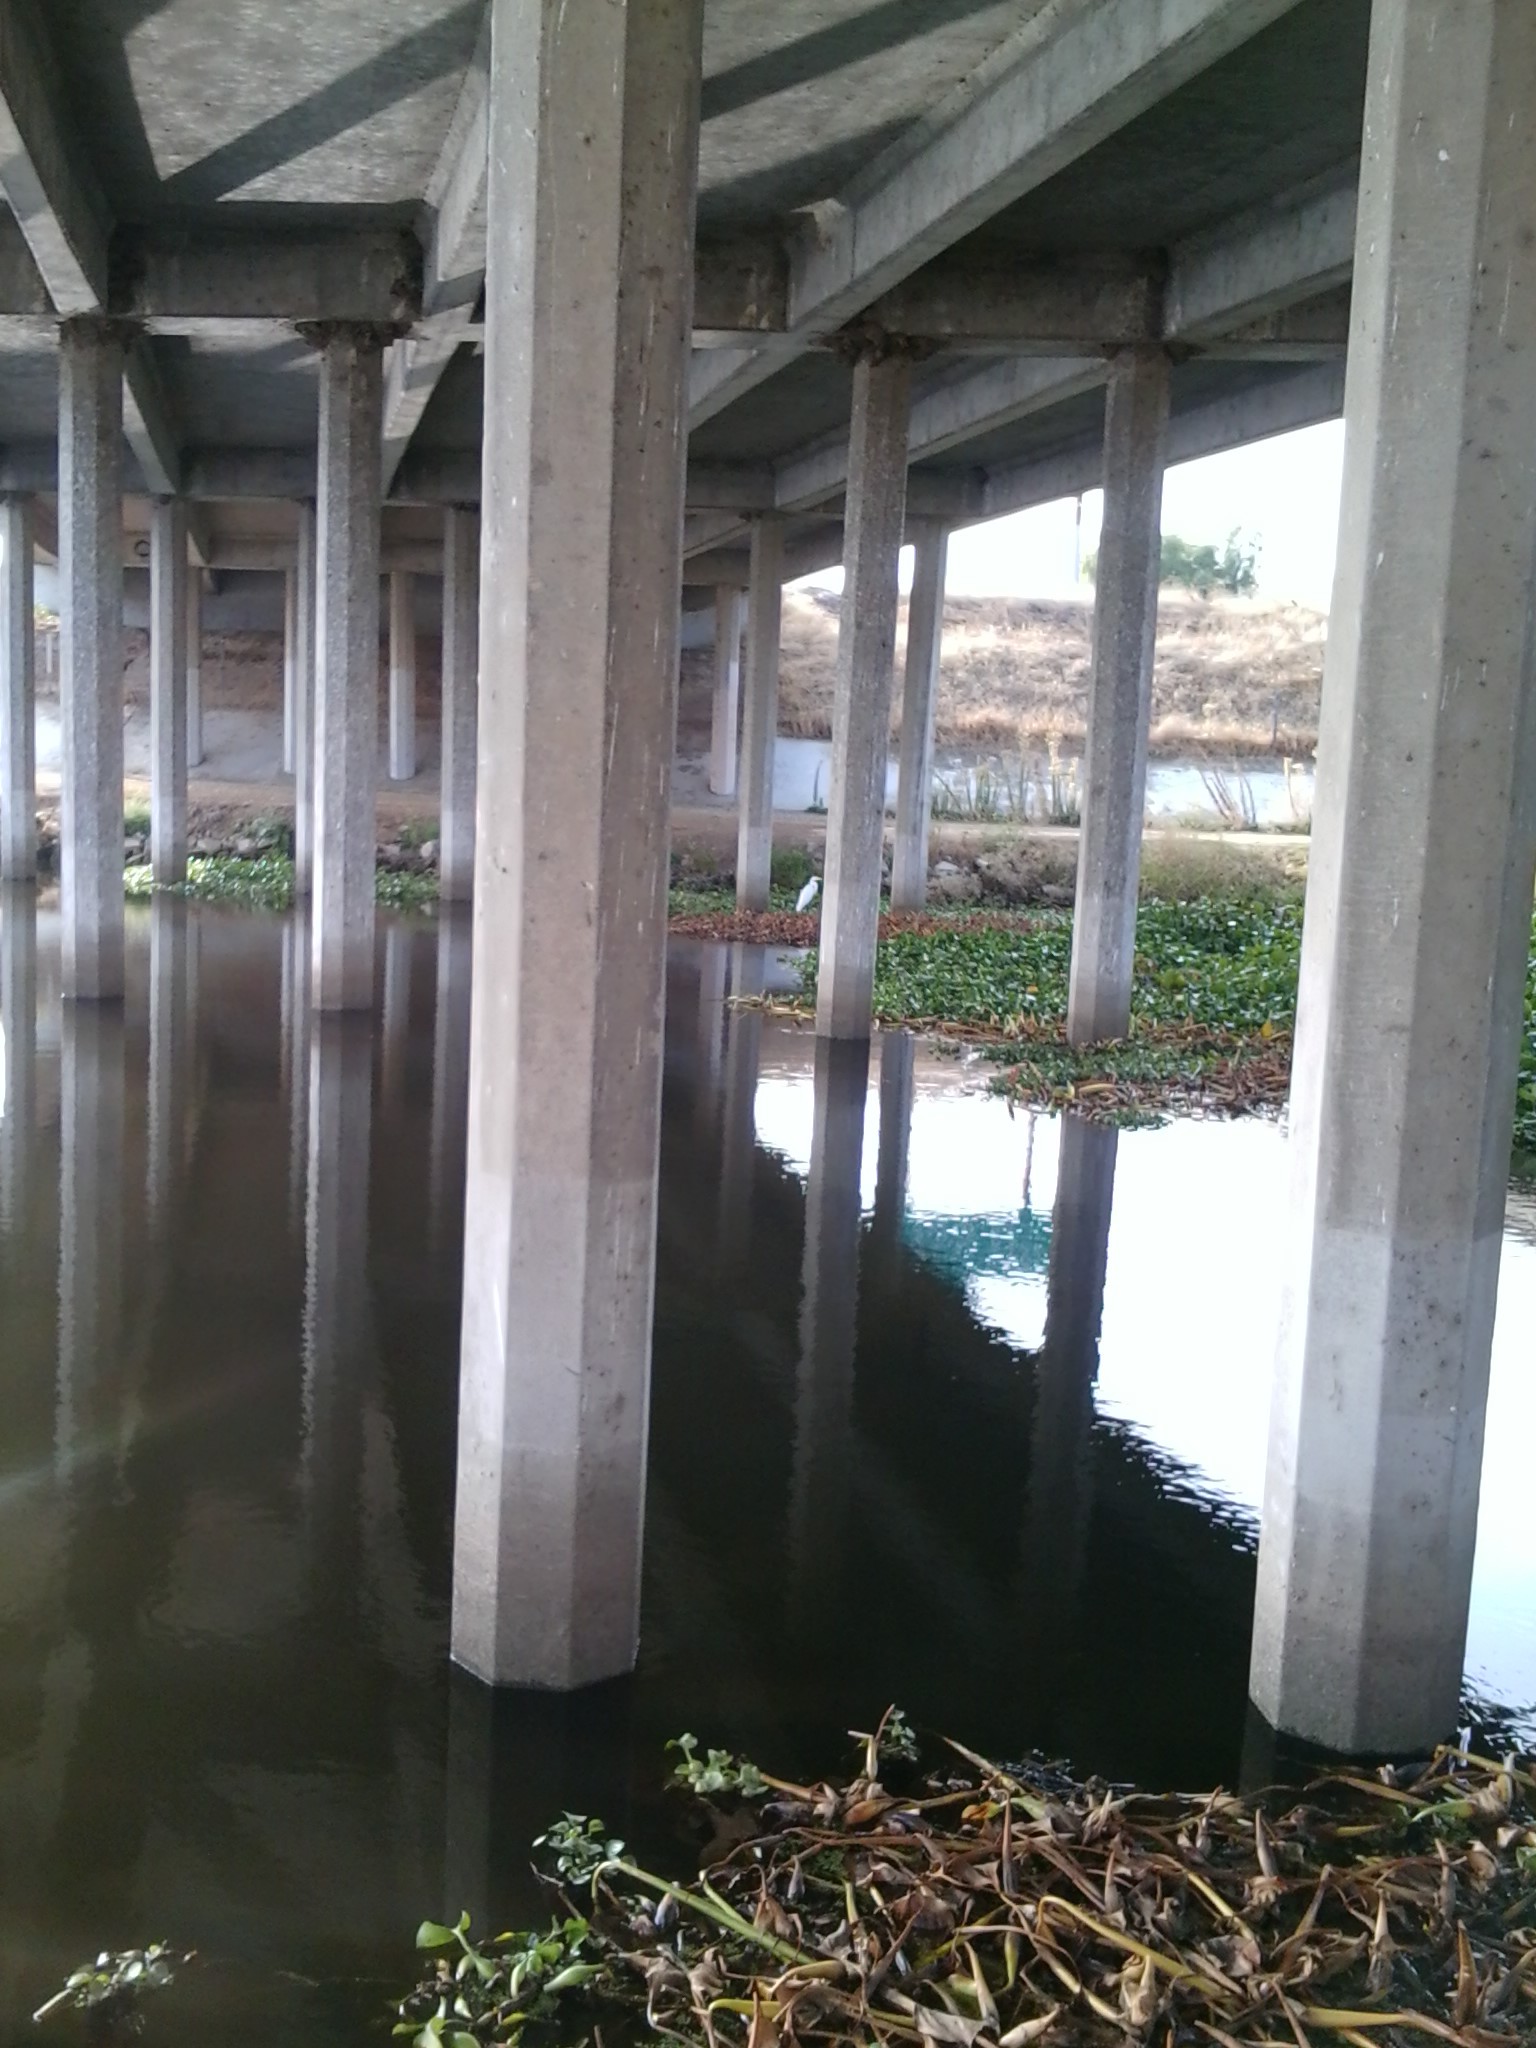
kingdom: Animalia
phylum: Chordata
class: Aves
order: Pelecaniformes
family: Ardeidae
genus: Ardea
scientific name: Ardea alba
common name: Great egret
